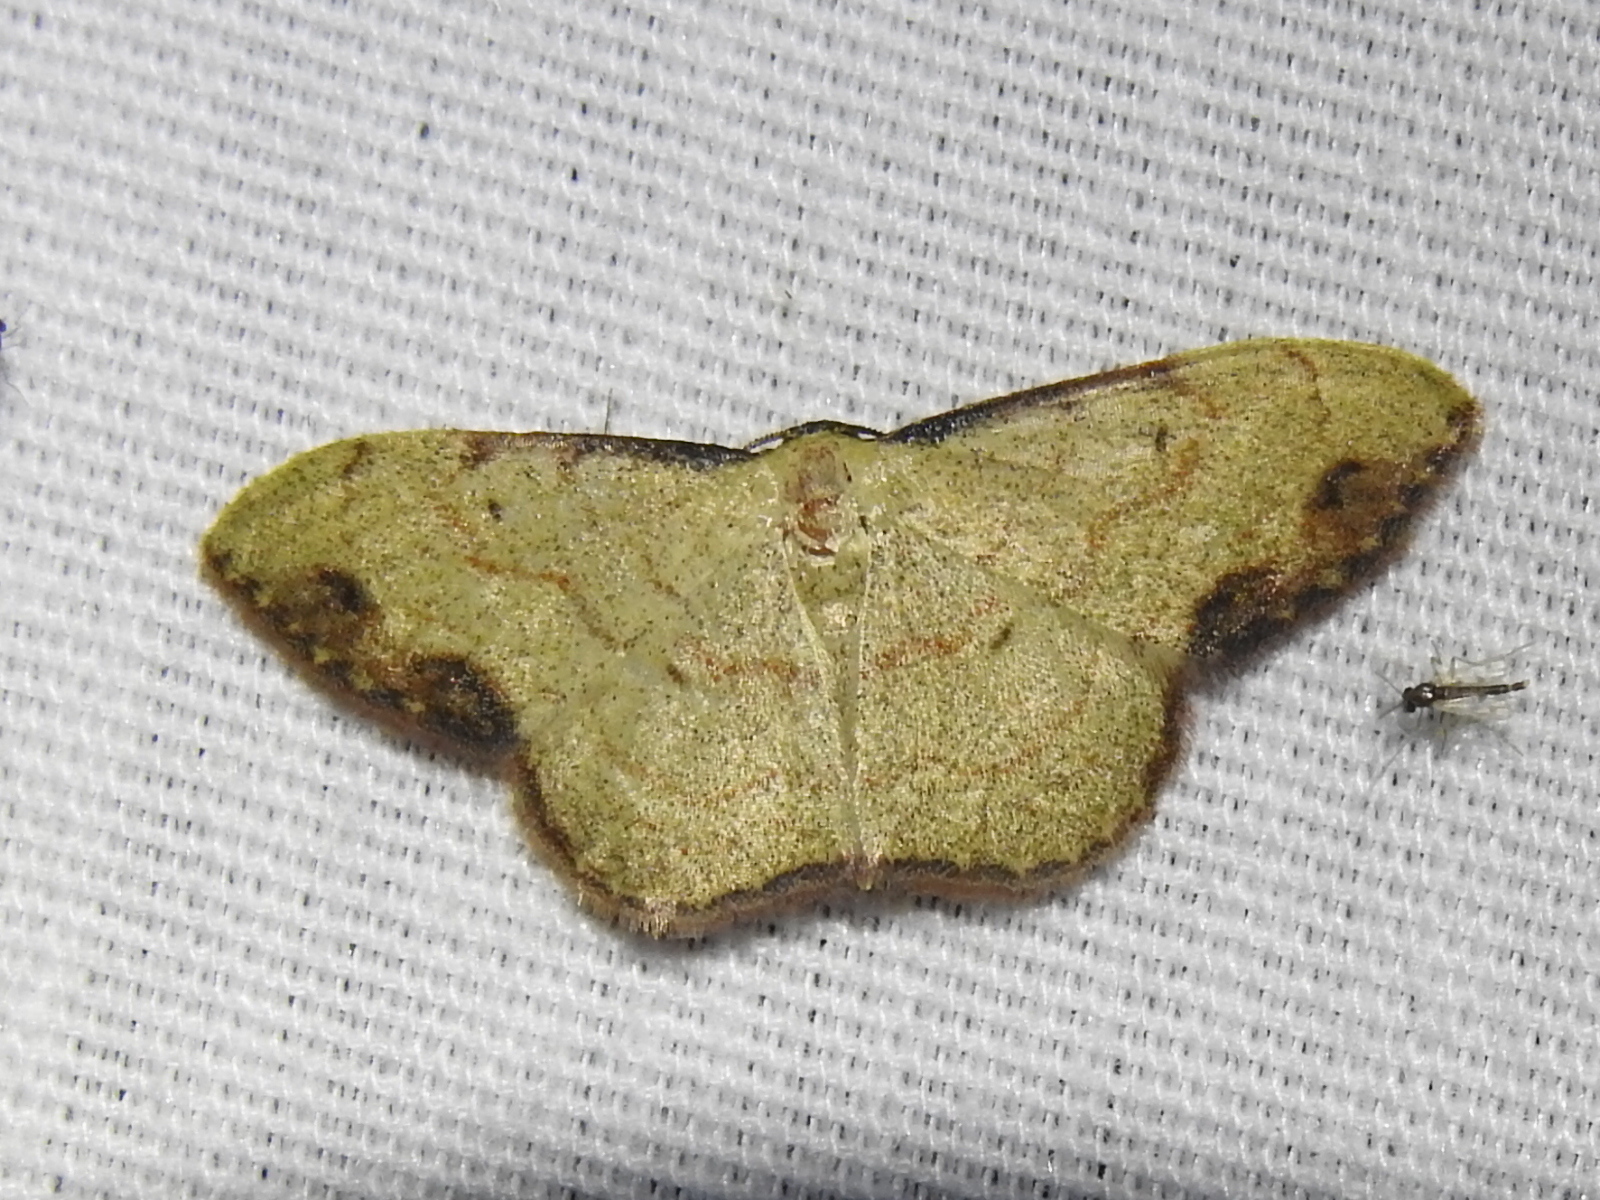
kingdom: Animalia
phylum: Arthropoda
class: Insecta
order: Lepidoptera
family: Geometridae
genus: Semaeopus
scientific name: Semaeopus marginata
